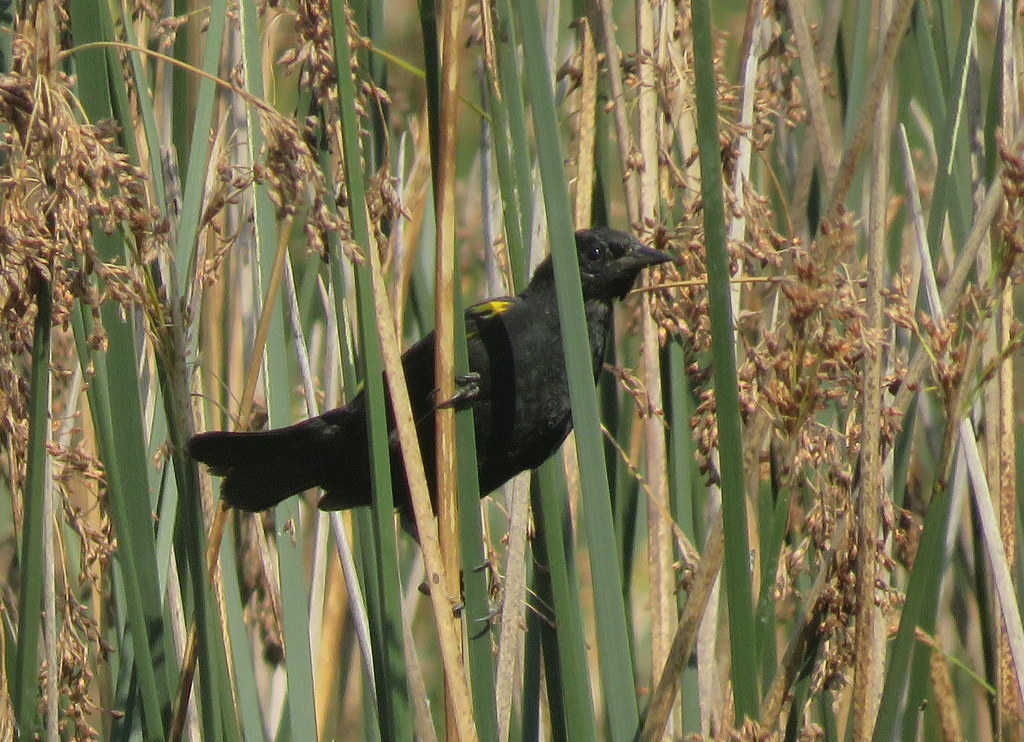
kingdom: Animalia
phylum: Chordata
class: Aves
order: Passeriformes
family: Icteridae
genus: Agelasticus
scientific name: Agelasticus thilius
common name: Yellow-winged blackbird
